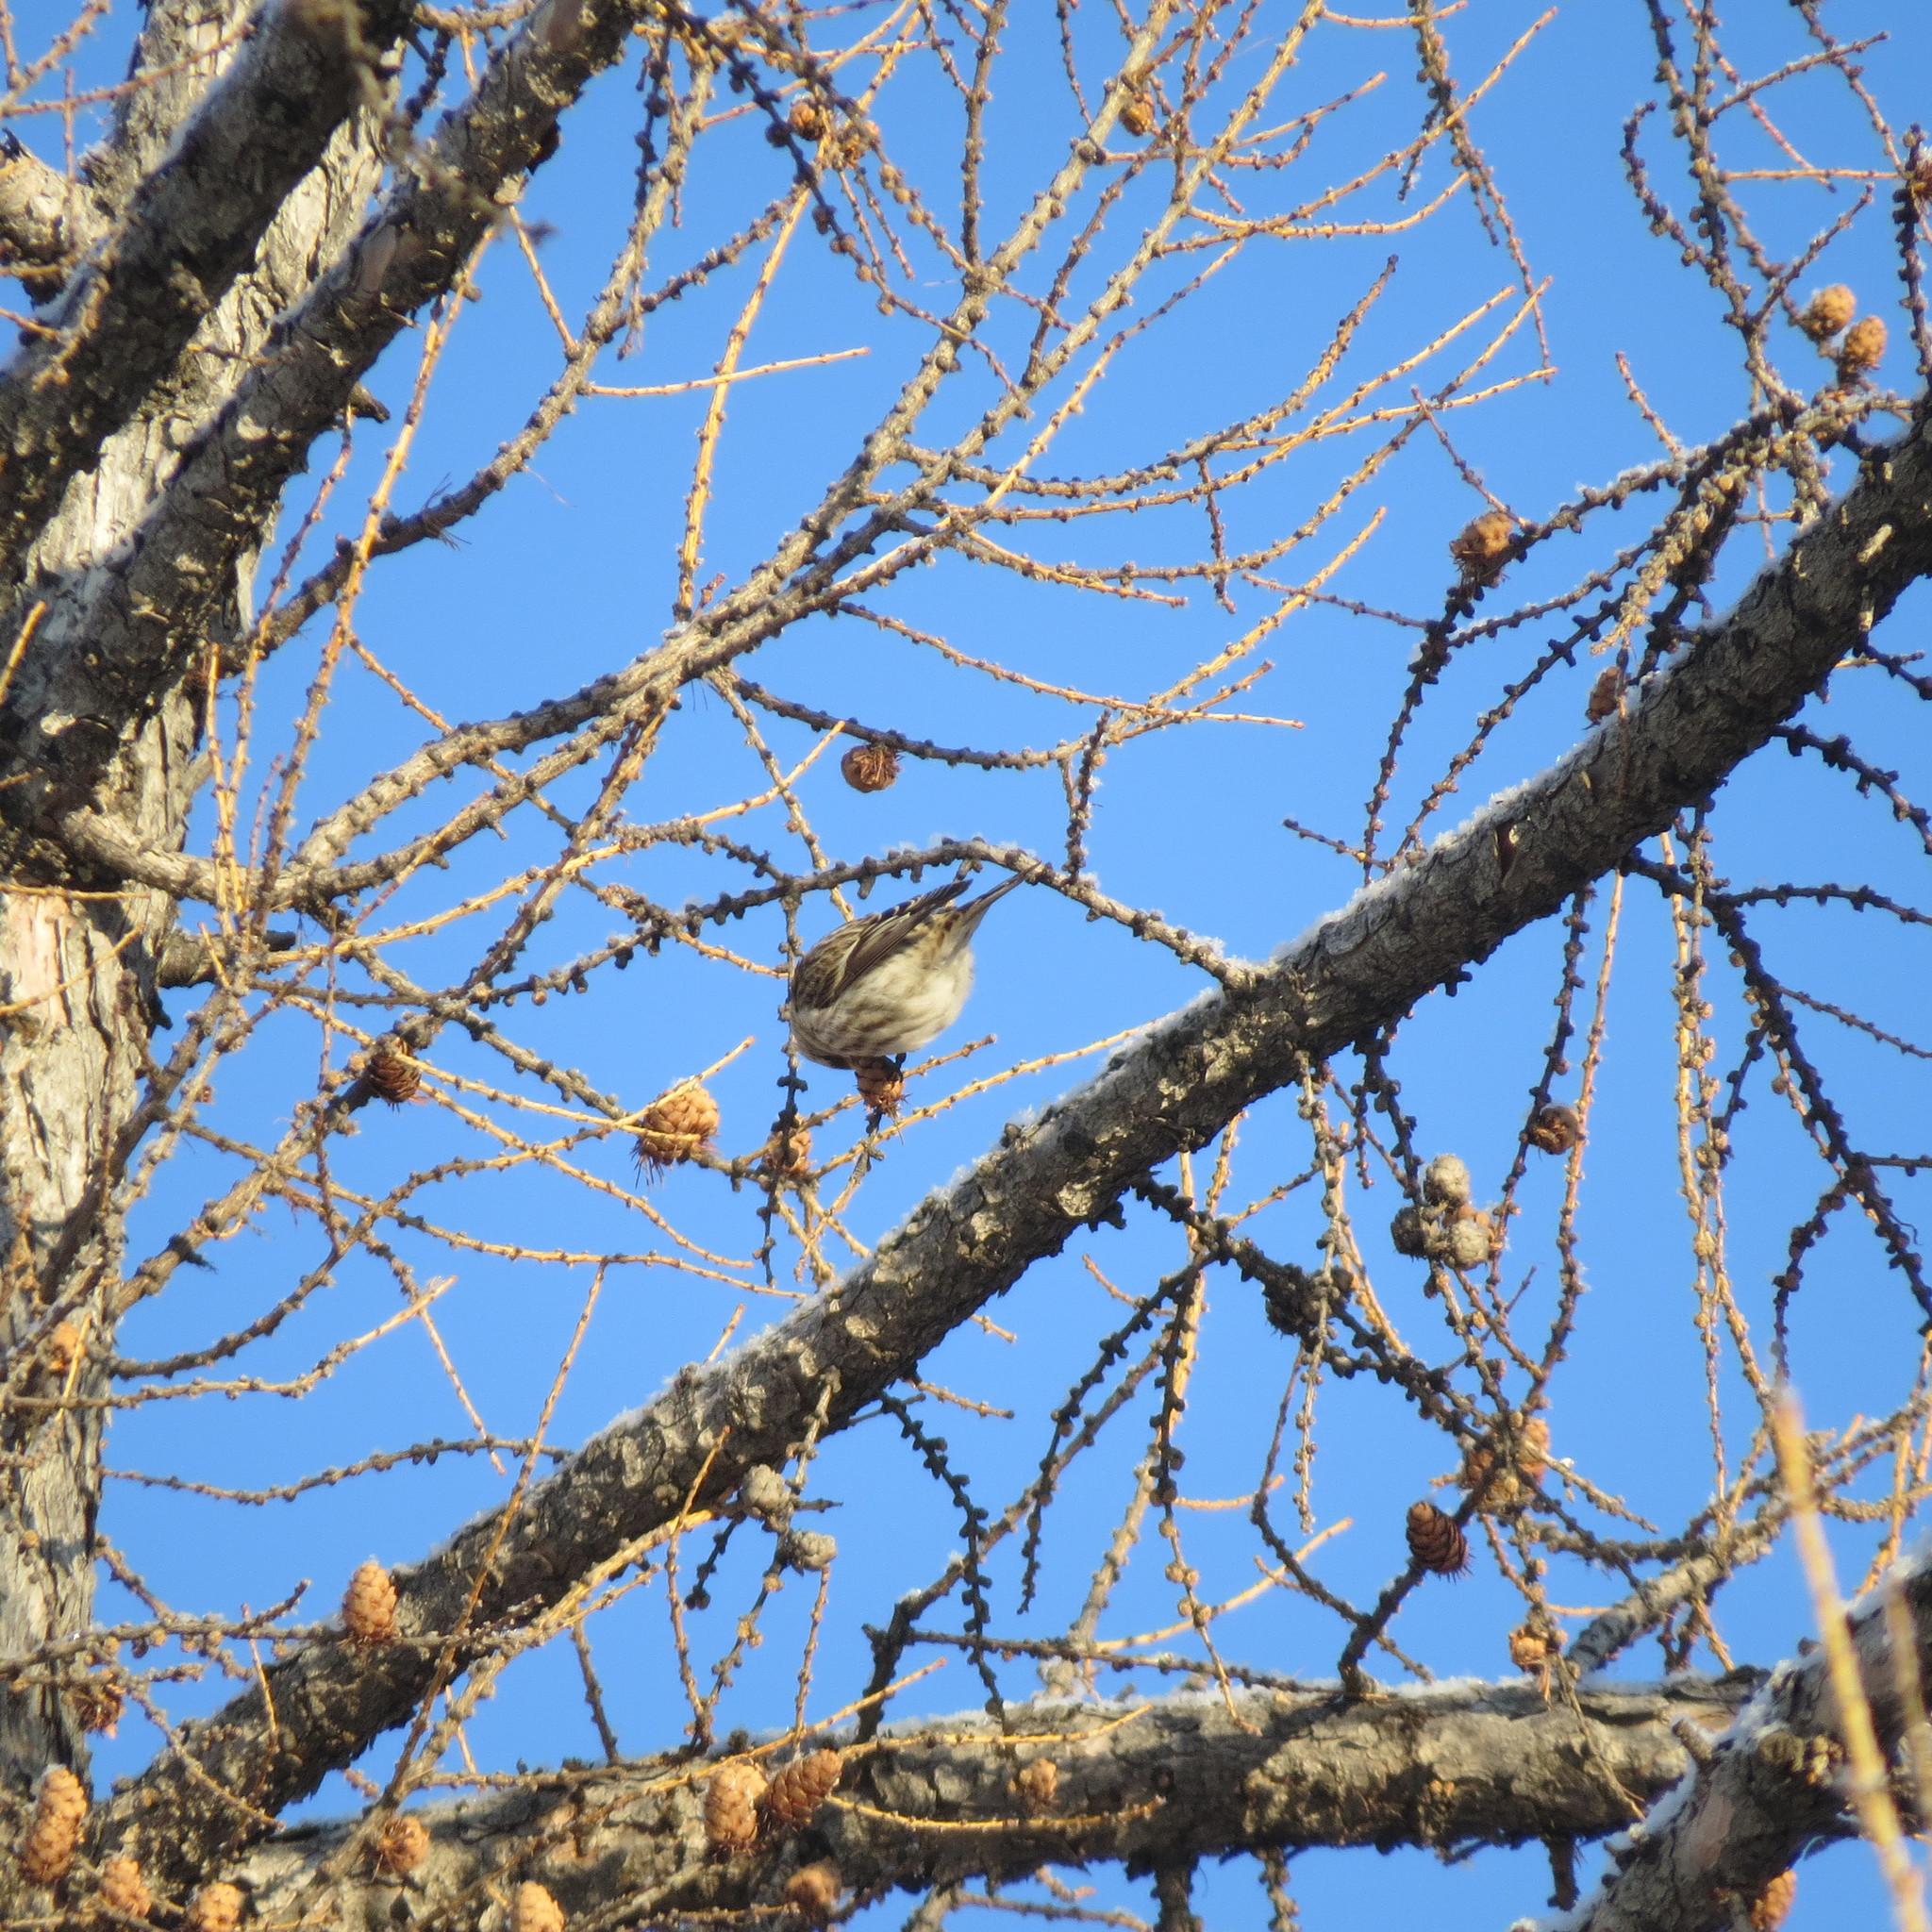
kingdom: Animalia
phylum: Chordata
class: Aves
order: Passeriformes
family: Fringillidae
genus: Acanthis
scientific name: Acanthis flammea
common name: Common redpoll
